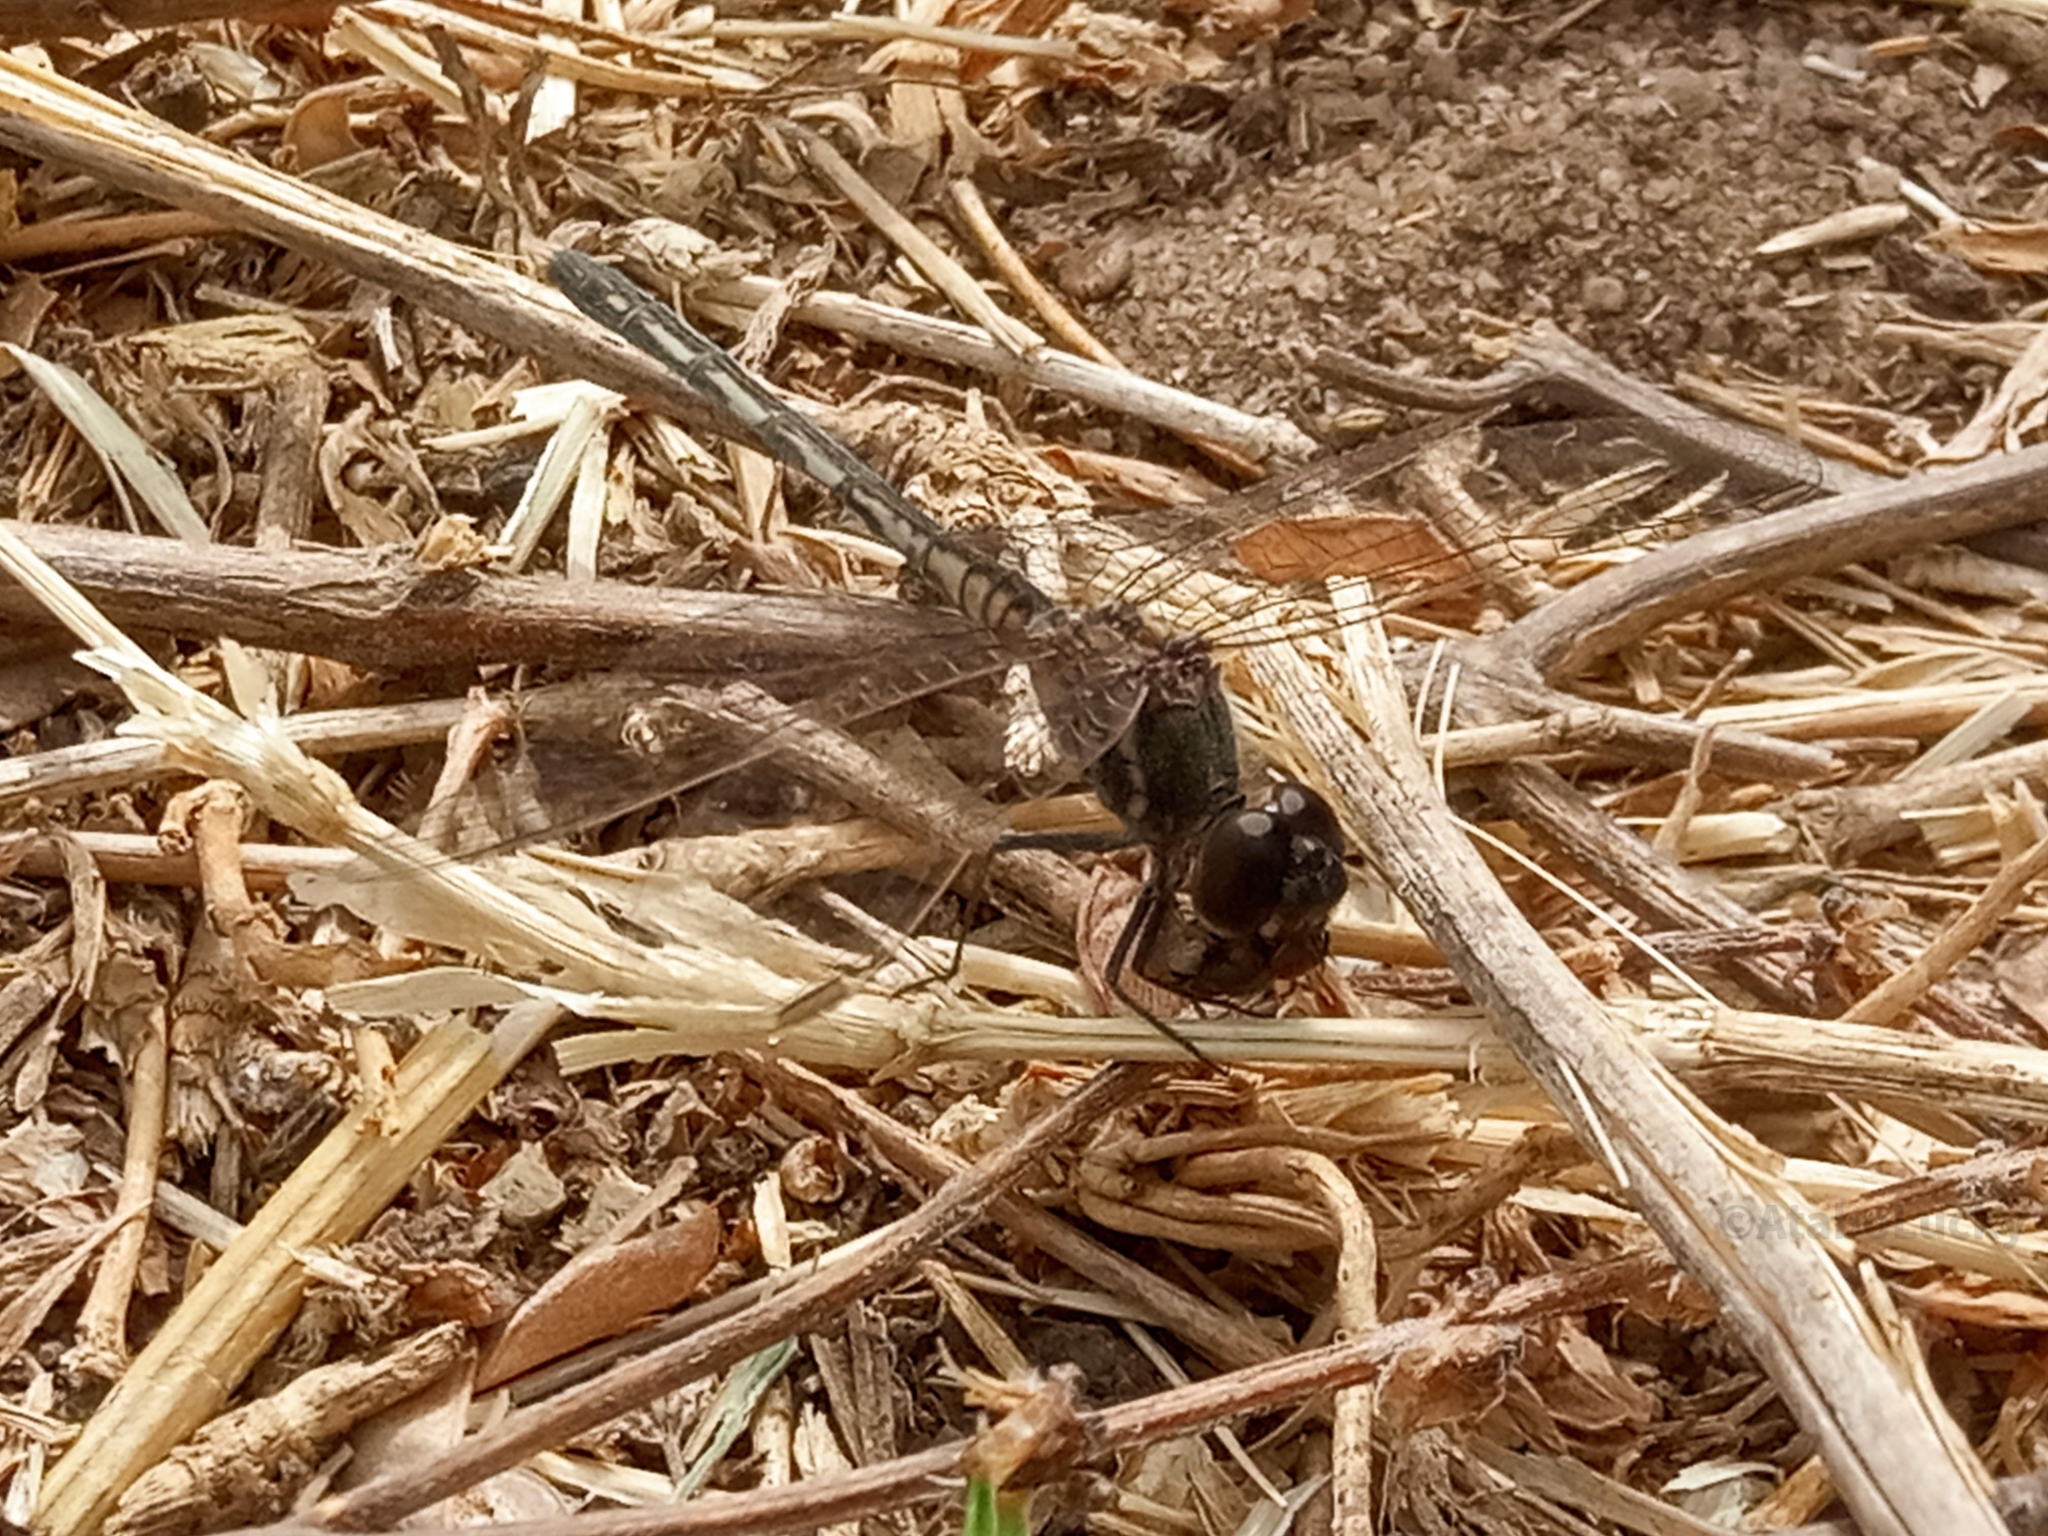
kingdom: Animalia
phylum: Arthropoda
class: Insecta
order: Odonata
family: Libellulidae
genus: Diplacodes
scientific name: Diplacodes lefebvrii
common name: Black percher
